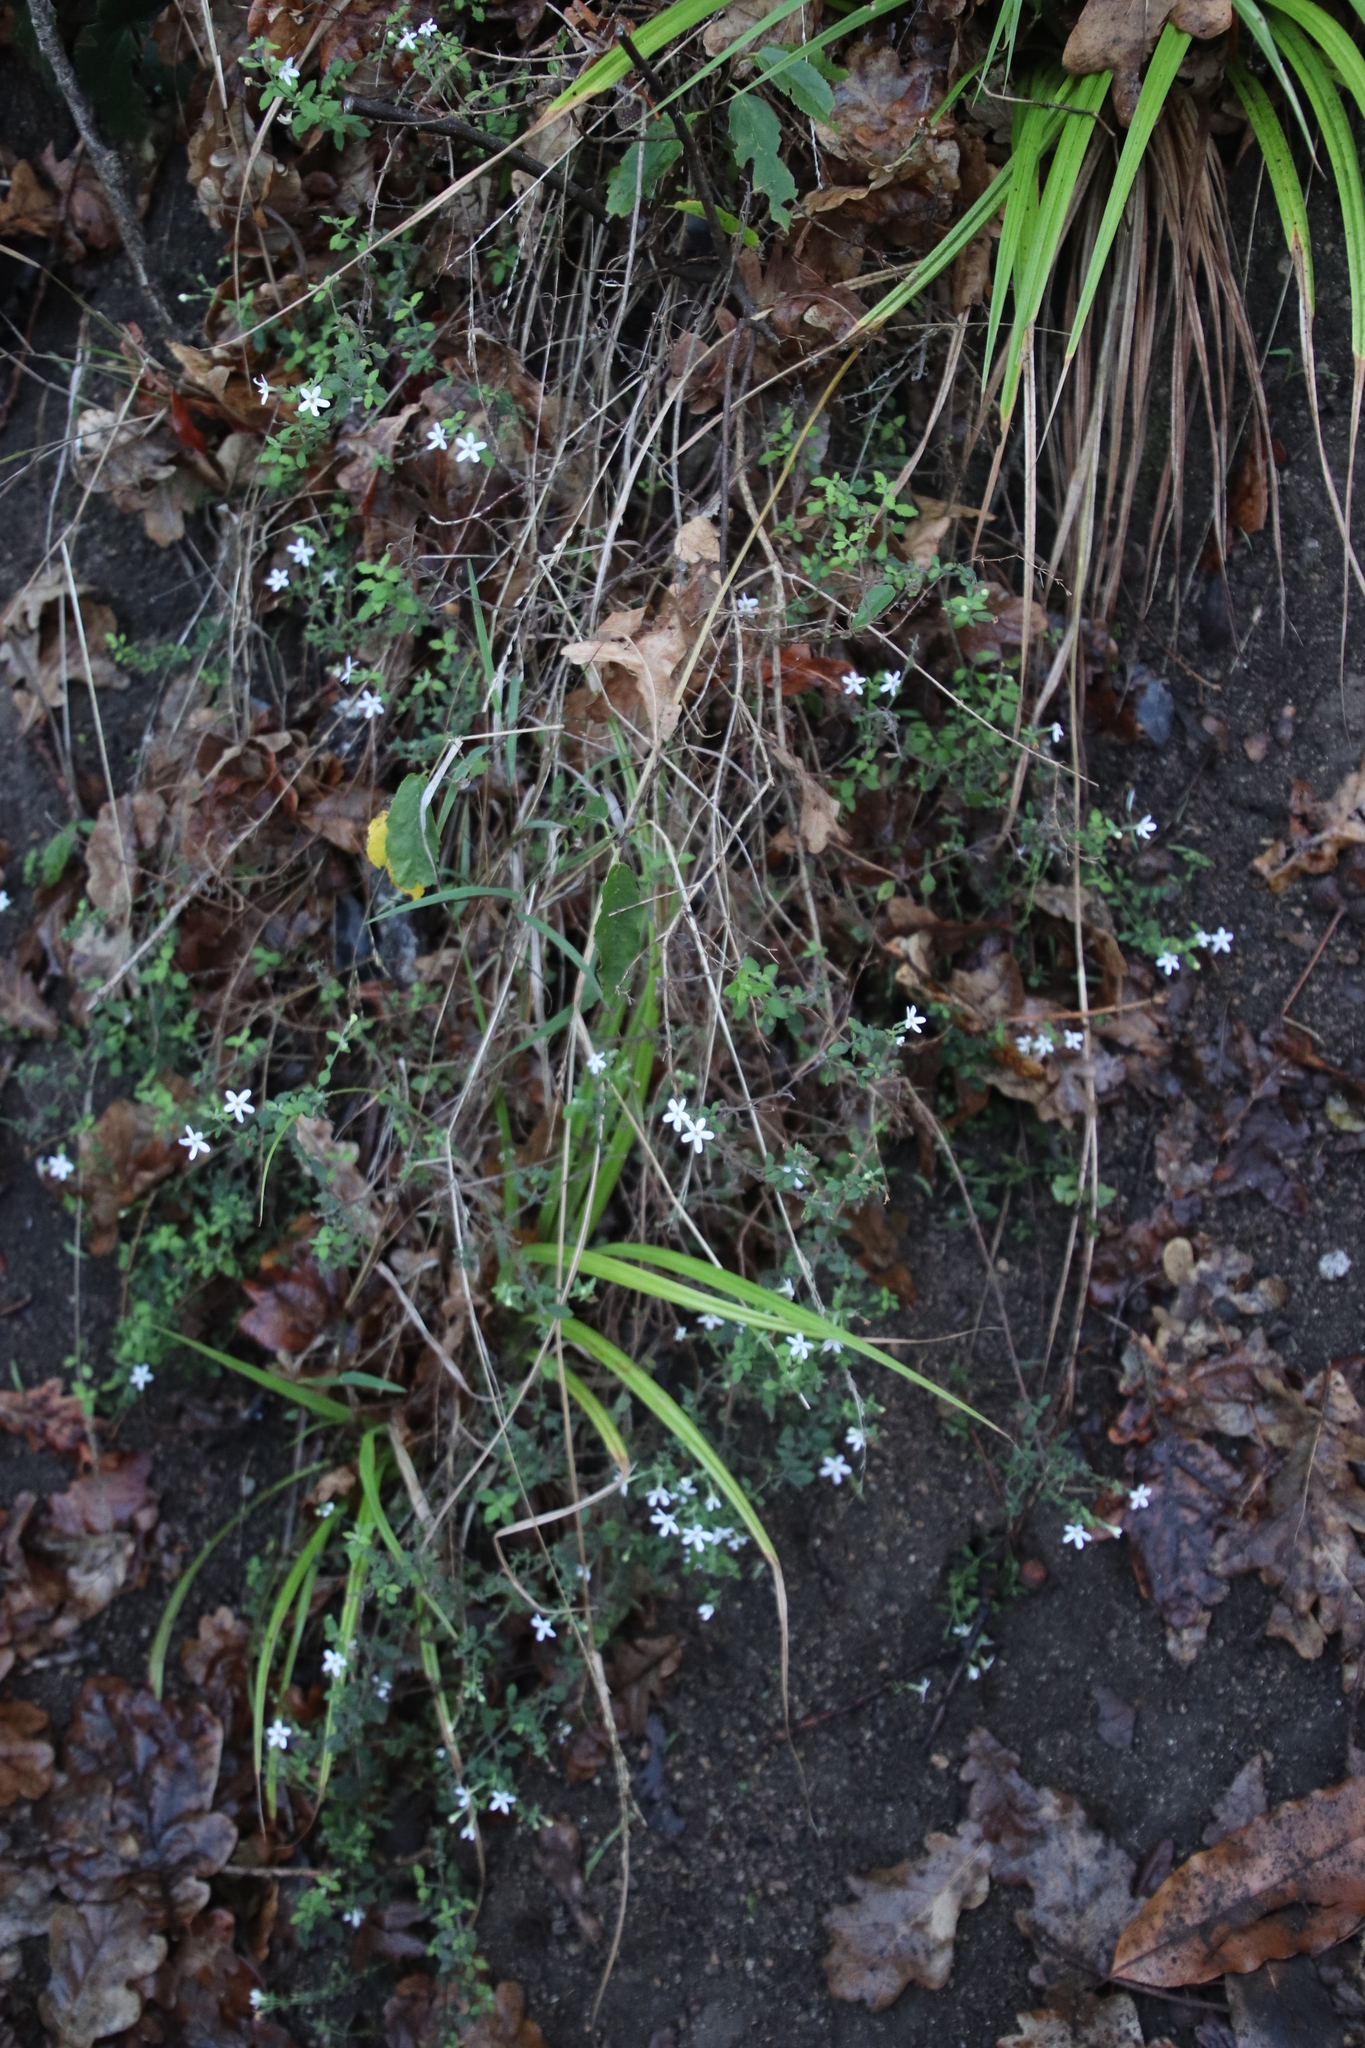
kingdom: Plantae
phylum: Tracheophyta
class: Magnoliopsida
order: Lamiales
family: Scrophulariaceae
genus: Chaenostoma
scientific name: Chaenostoma hispidum
